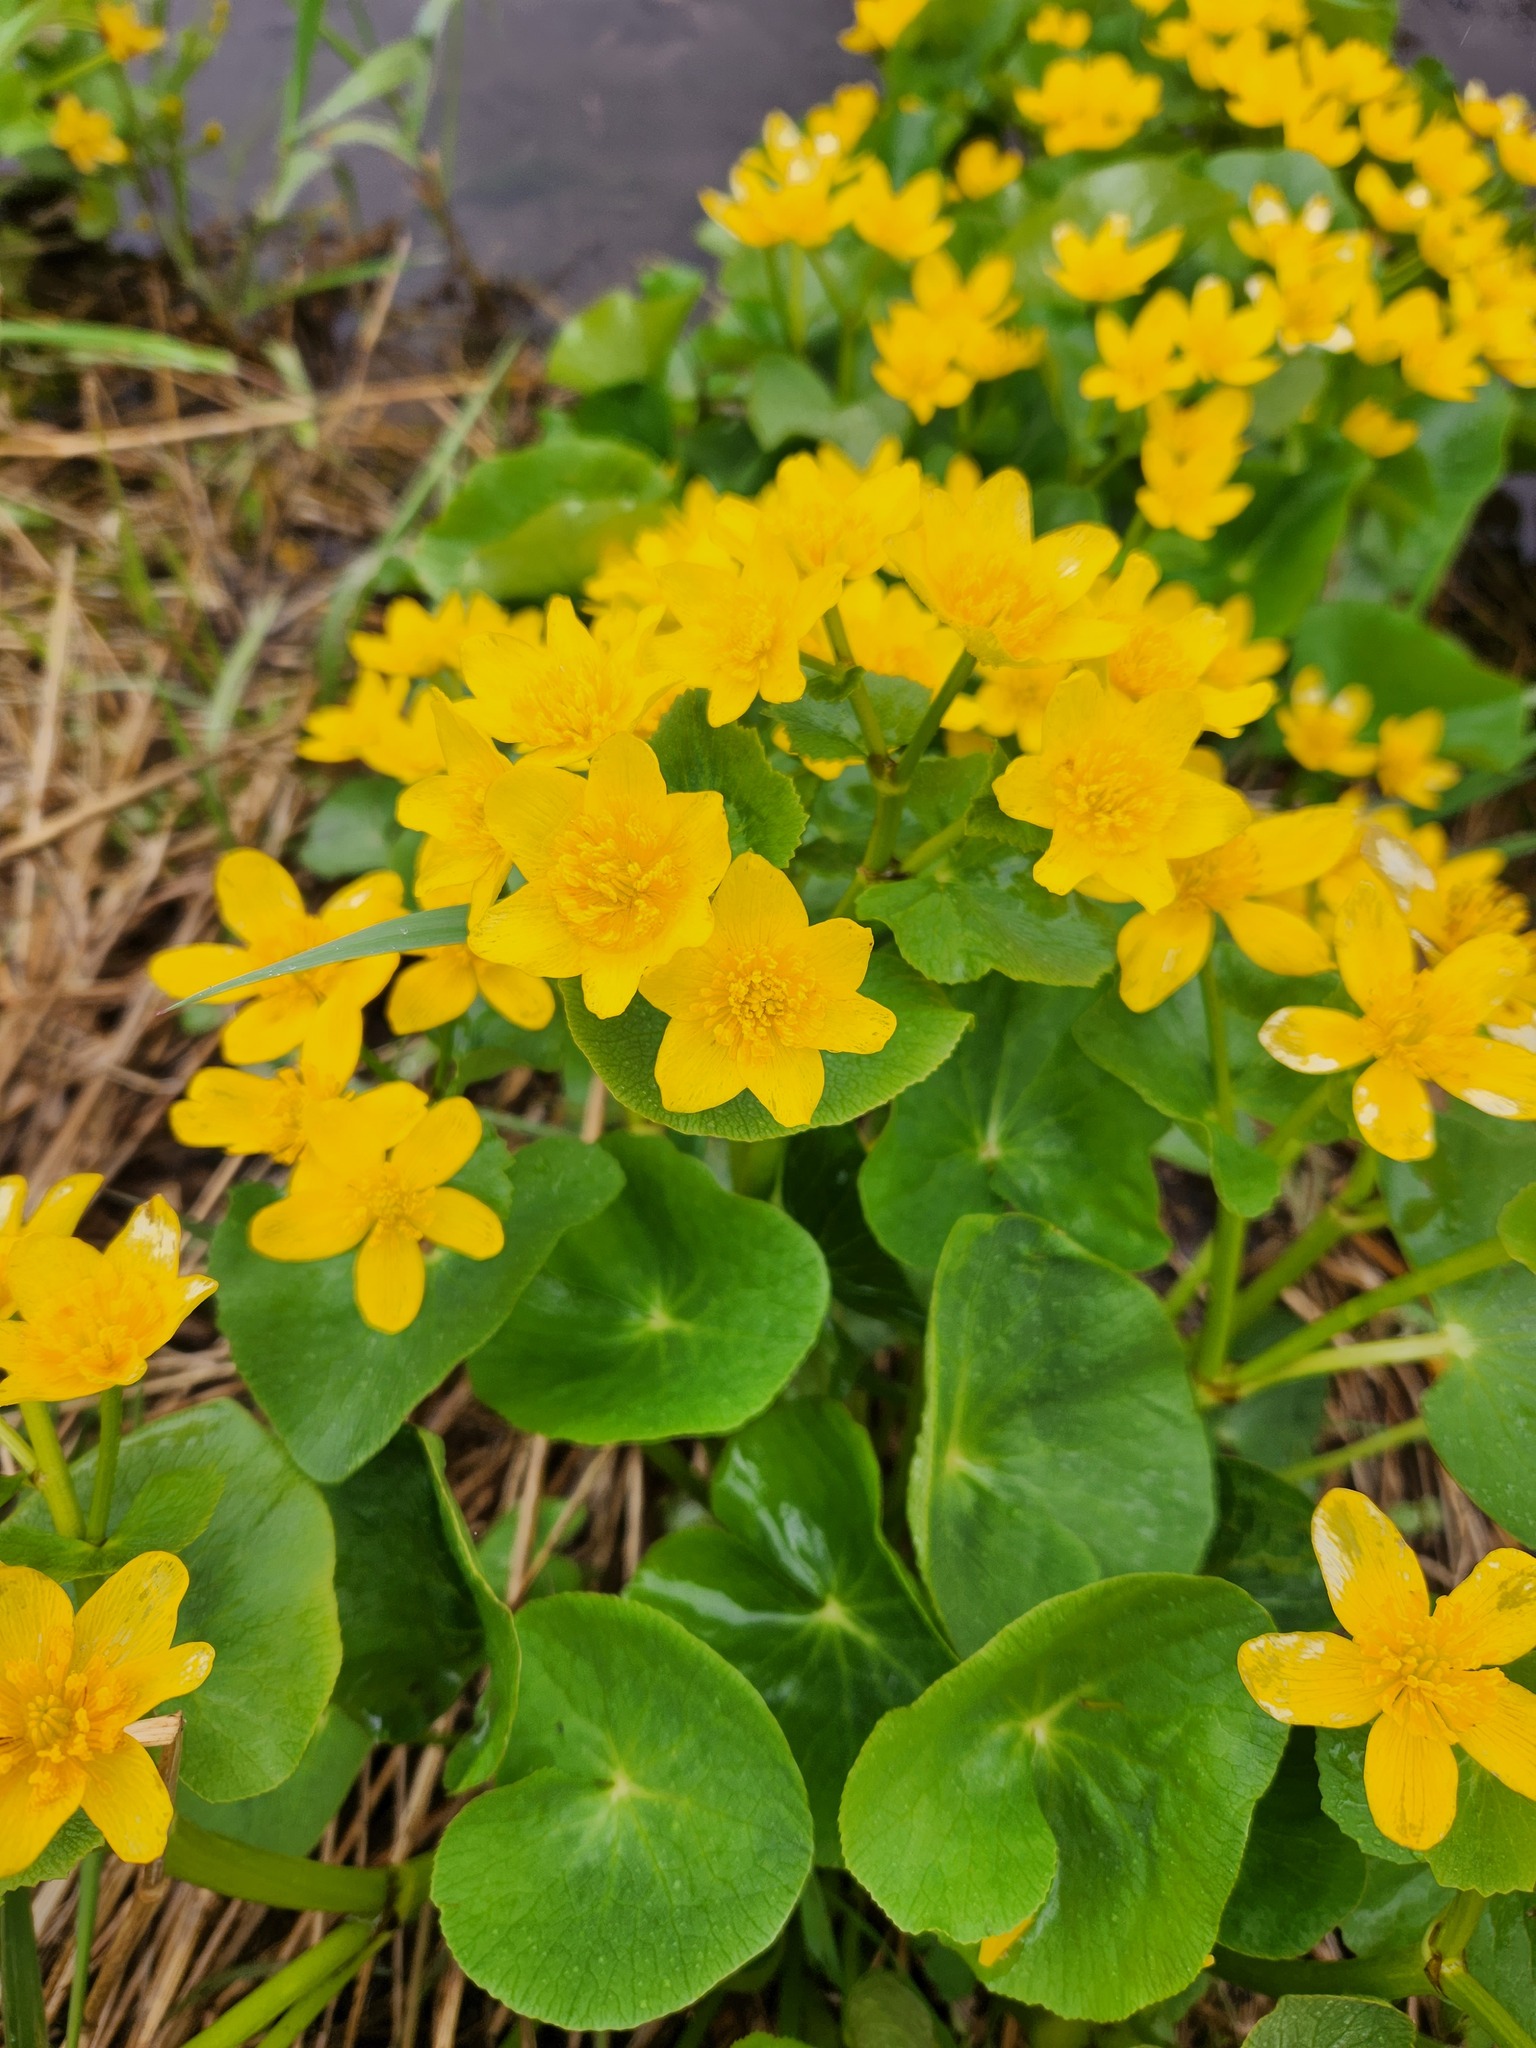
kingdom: Plantae
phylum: Tracheophyta
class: Magnoliopsida
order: Ranunculales
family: Ranunculaceae
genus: Caltha
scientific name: Caltha palustris
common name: Marsh marigold
